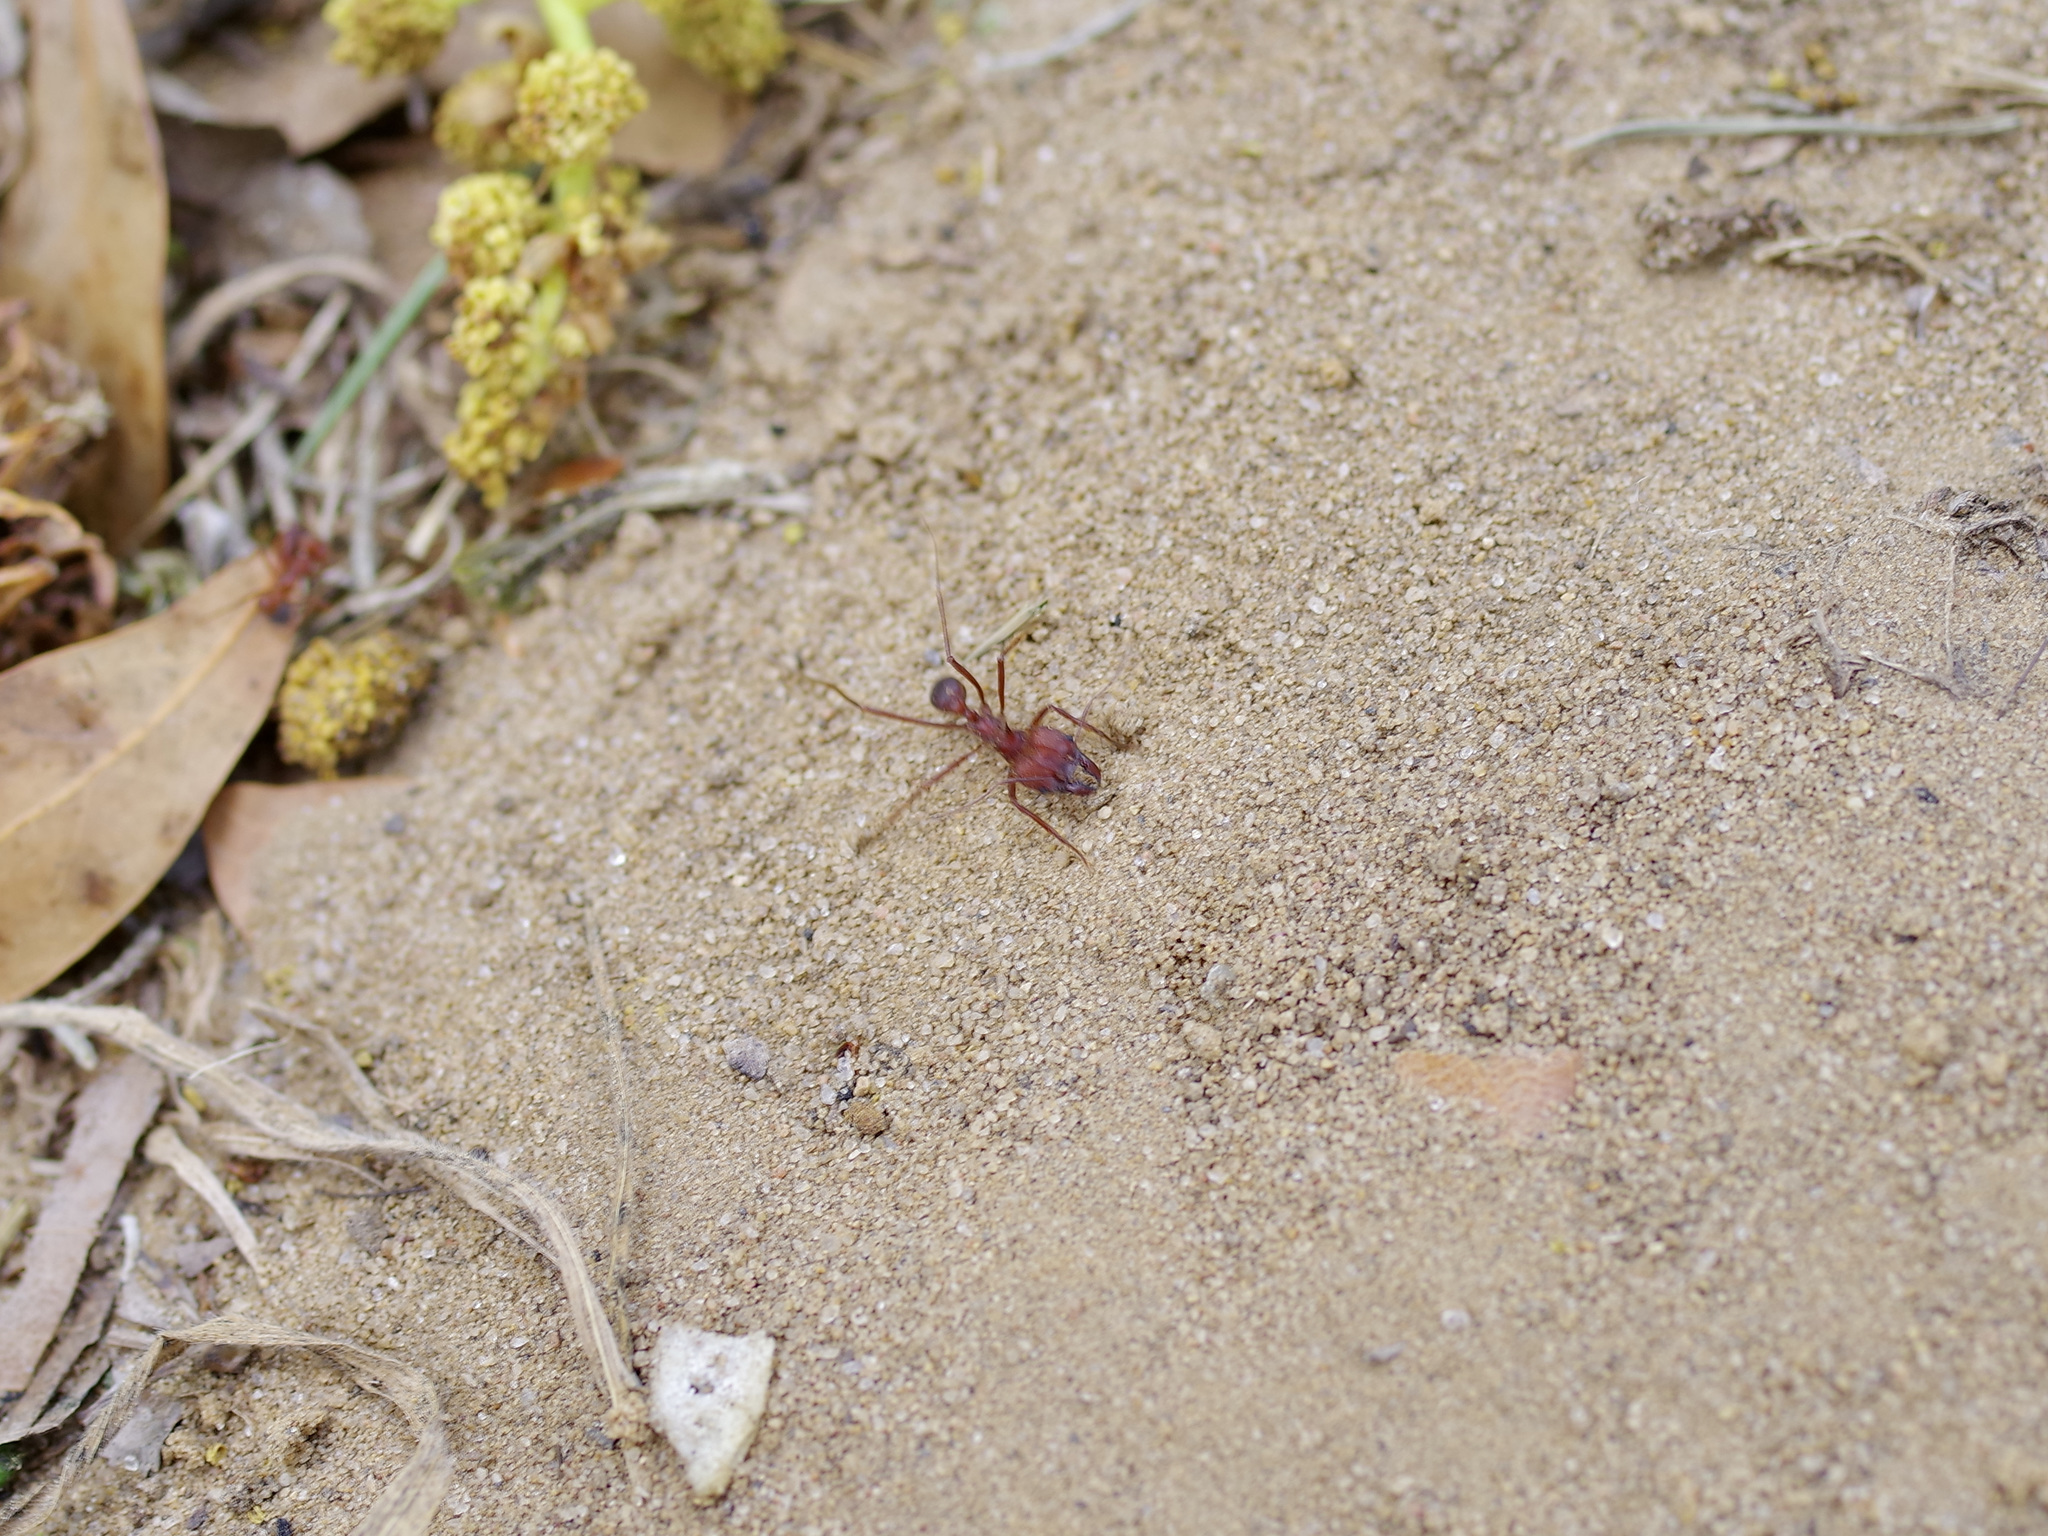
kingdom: Animalia
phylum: Arthropoda
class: Insecta
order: Hymenoptera
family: Formicidae
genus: Atta
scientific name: Atta texana
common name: Texas leafcutting ant
